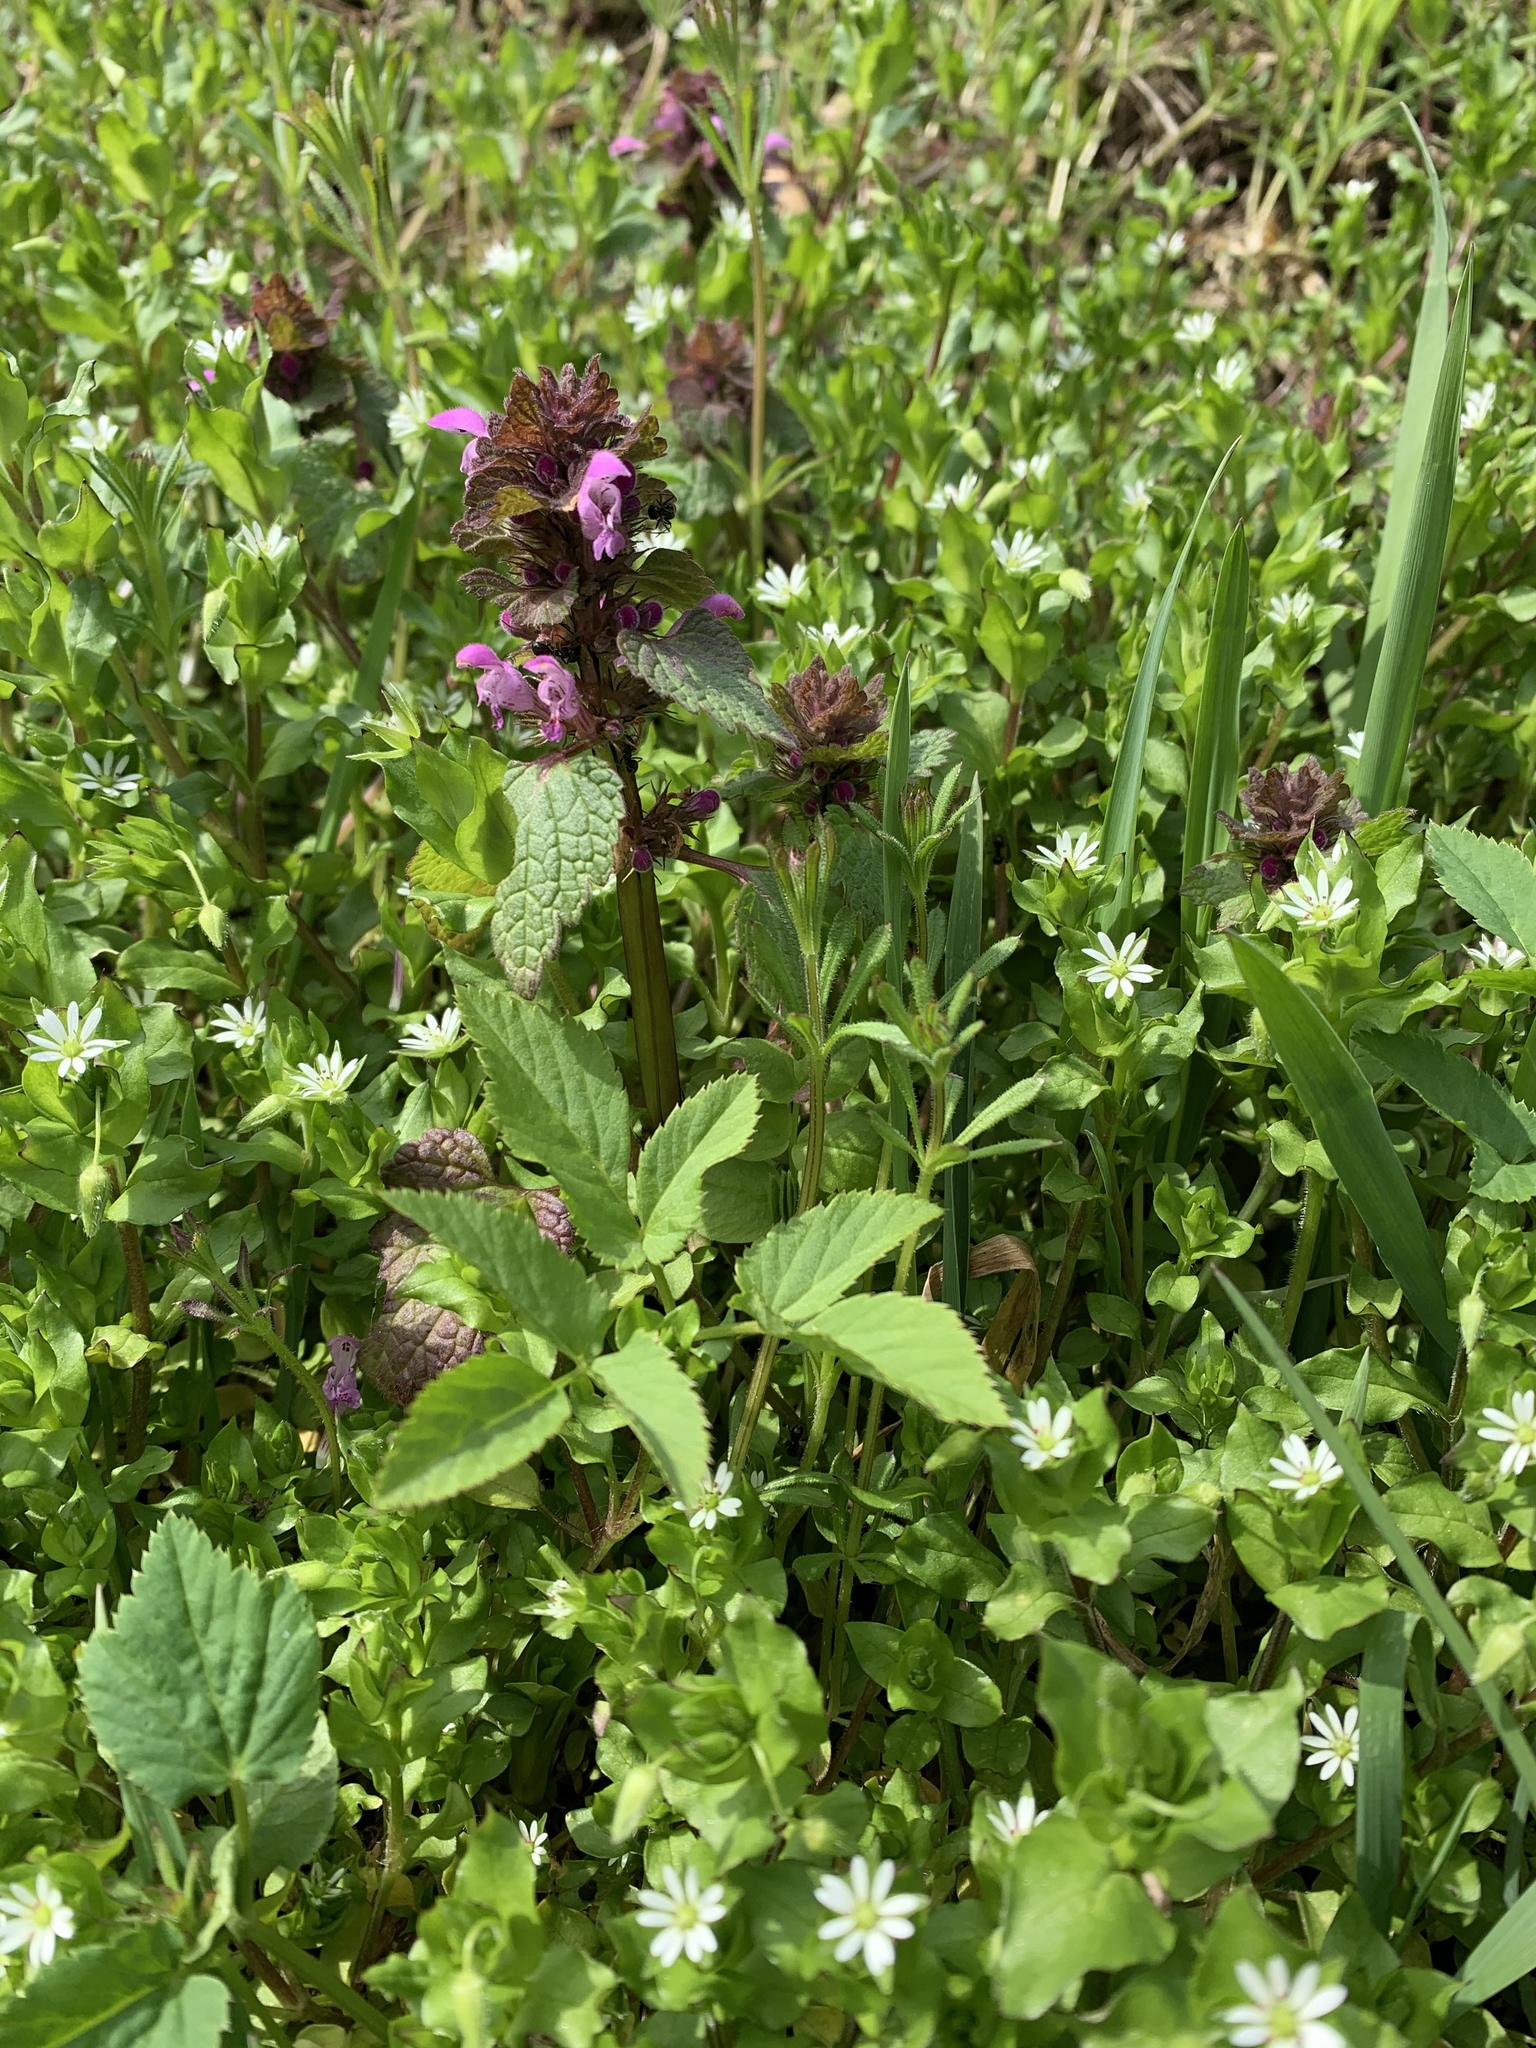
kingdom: Plantae
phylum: Tracheophyta
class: Magnoliopsida
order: Lamiales
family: Lamiaceae
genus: Lamium
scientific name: Lamium purpureum
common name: Red dead-nettle
